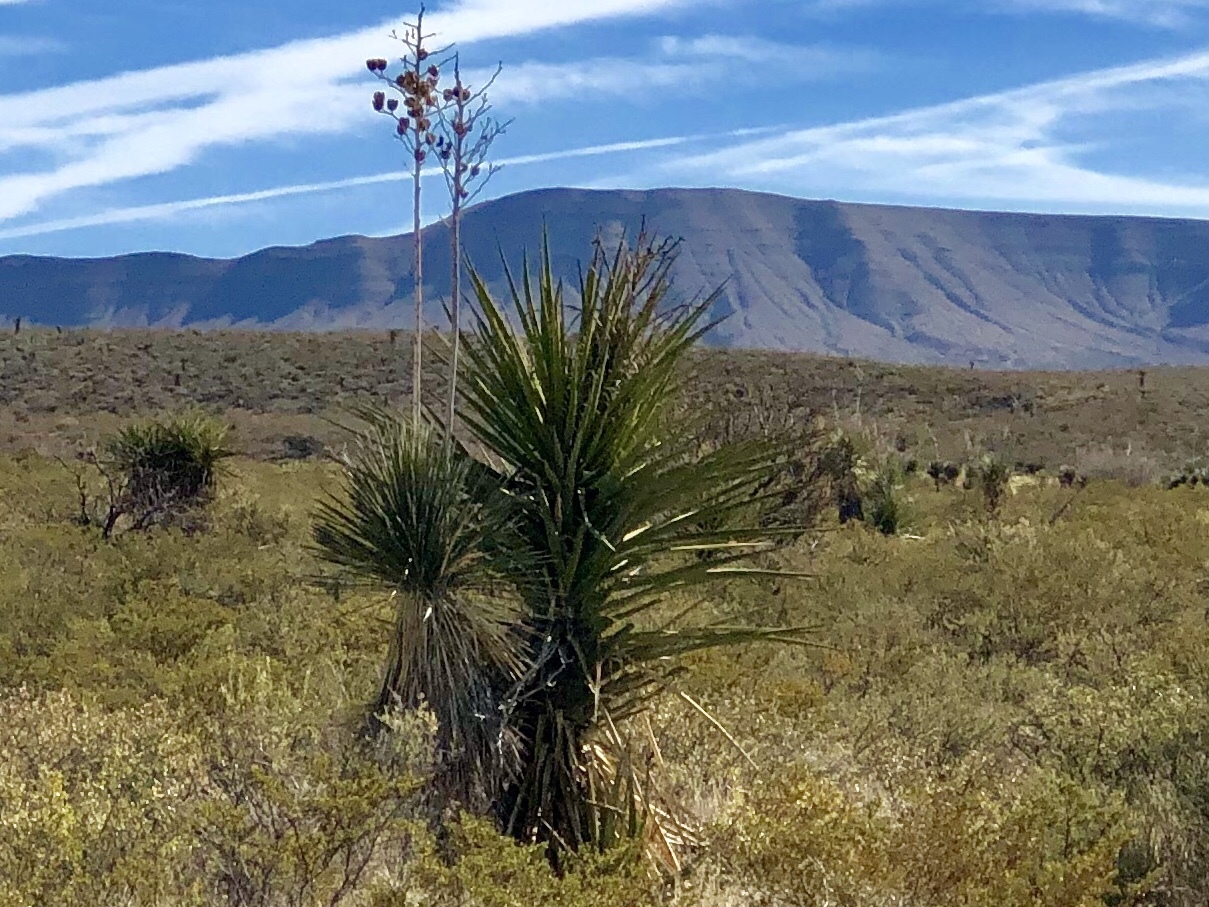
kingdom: Plantae
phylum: Tracheophyta
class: Liliopsida
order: Asparagales
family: Asparagaceae
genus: Yucca
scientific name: Yucca treculiana
